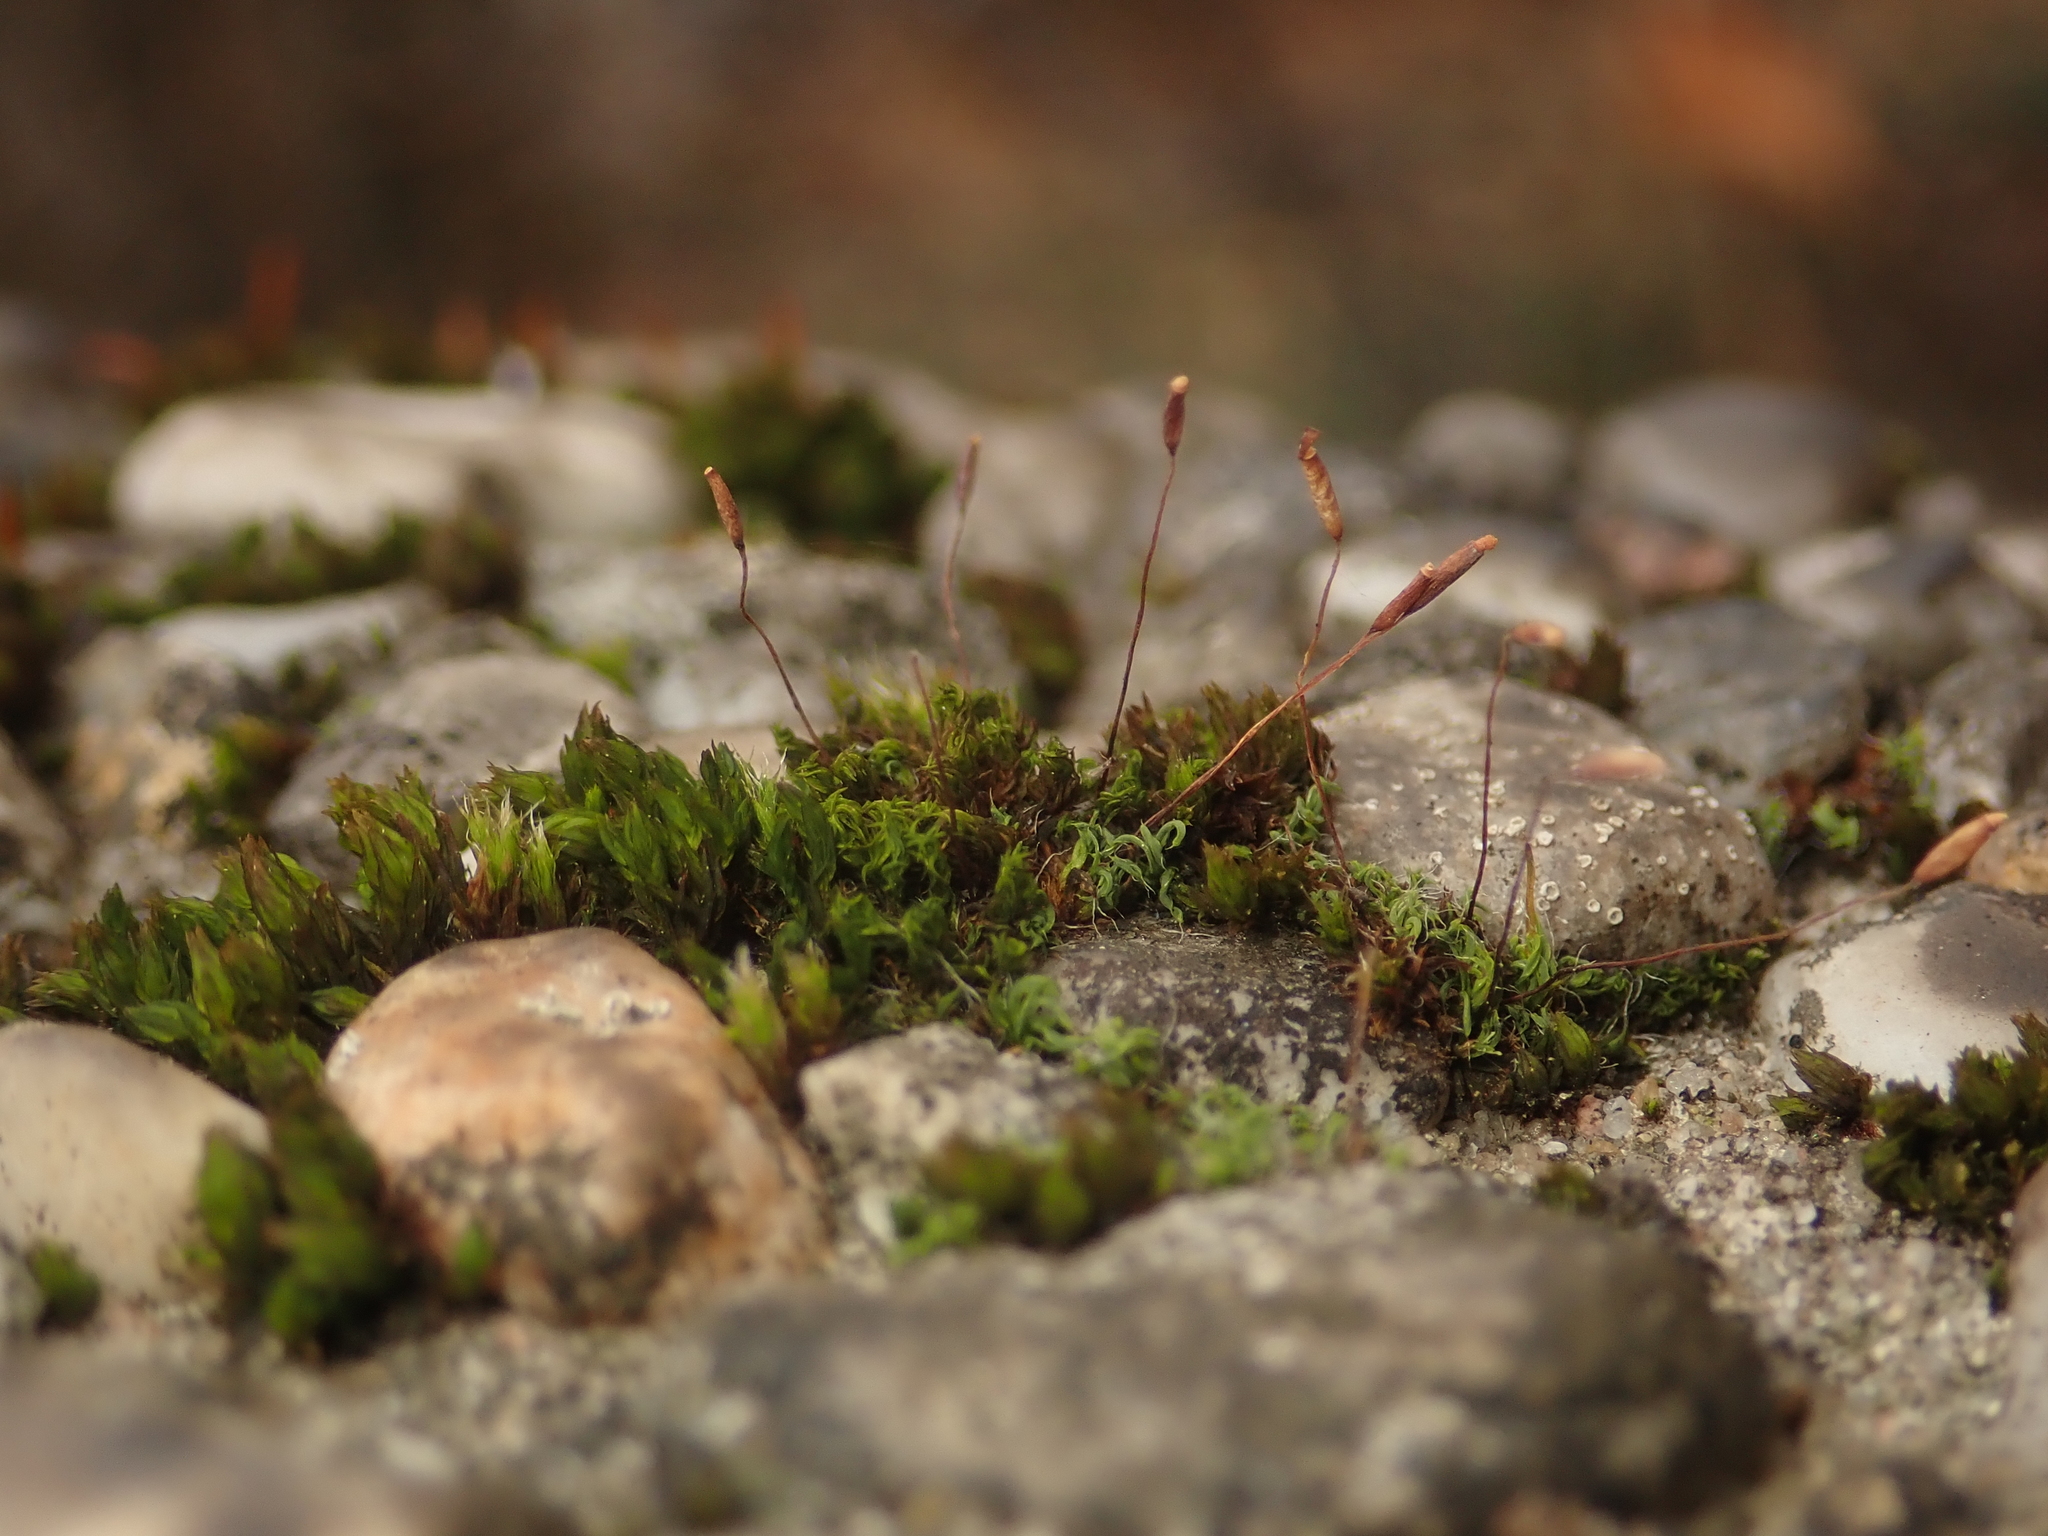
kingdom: Plantae
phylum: Bryophyta
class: Bryopsida
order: Pottiales
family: Pottiaceae
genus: Tortula
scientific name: Tortula muralis
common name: Wall screw-moss
